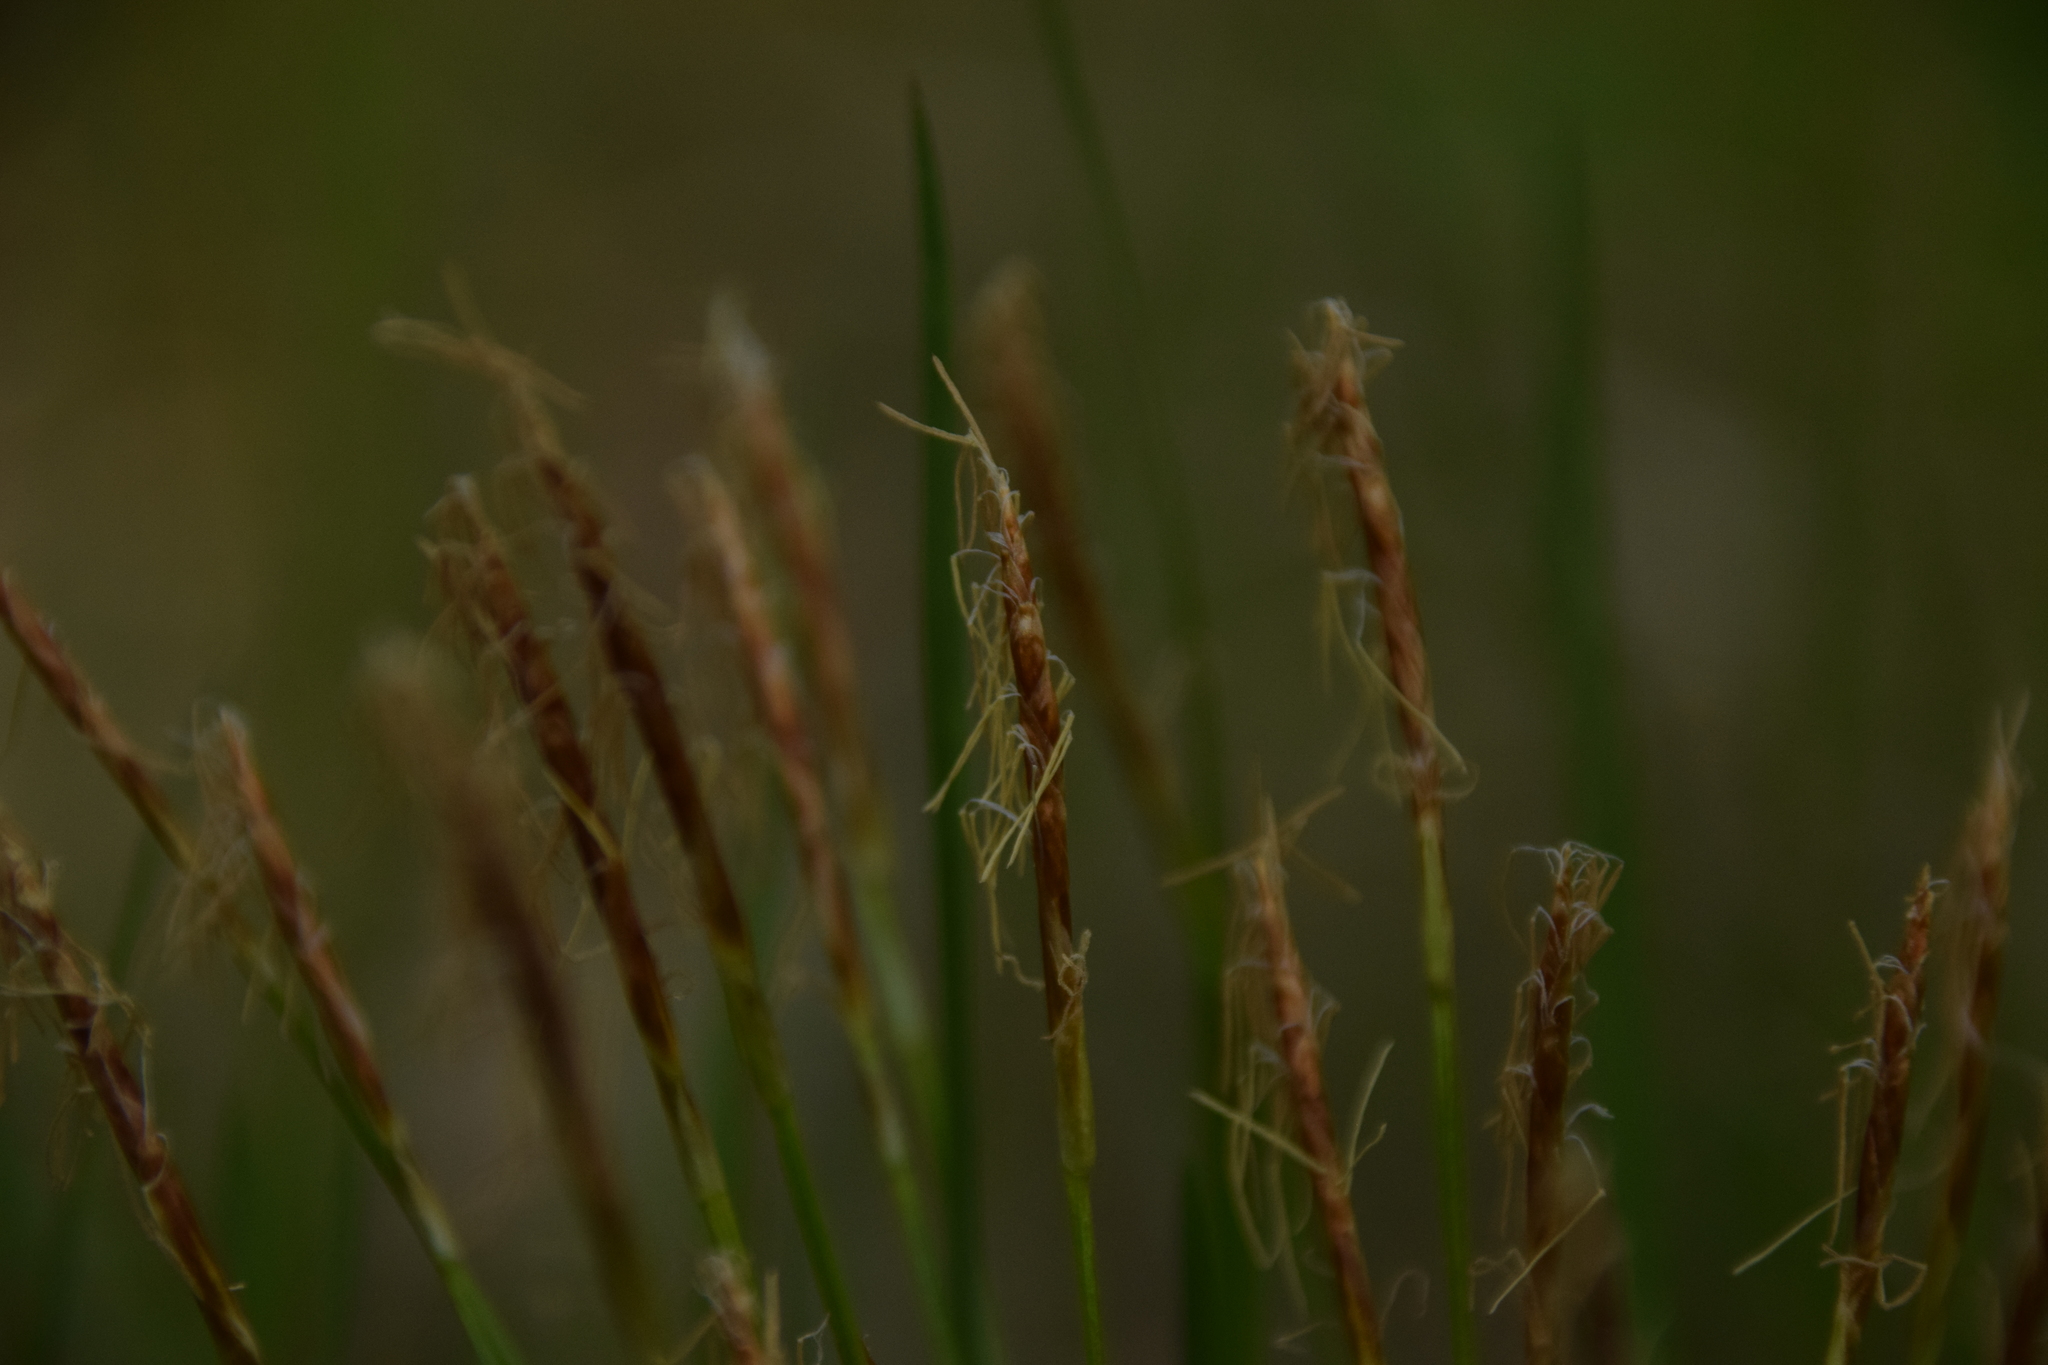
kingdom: Plantae
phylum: Tracheophyta
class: Liliopsida
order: Poales
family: Cyperaceae
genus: Carex
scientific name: Carex geyeri
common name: Elk sedge
